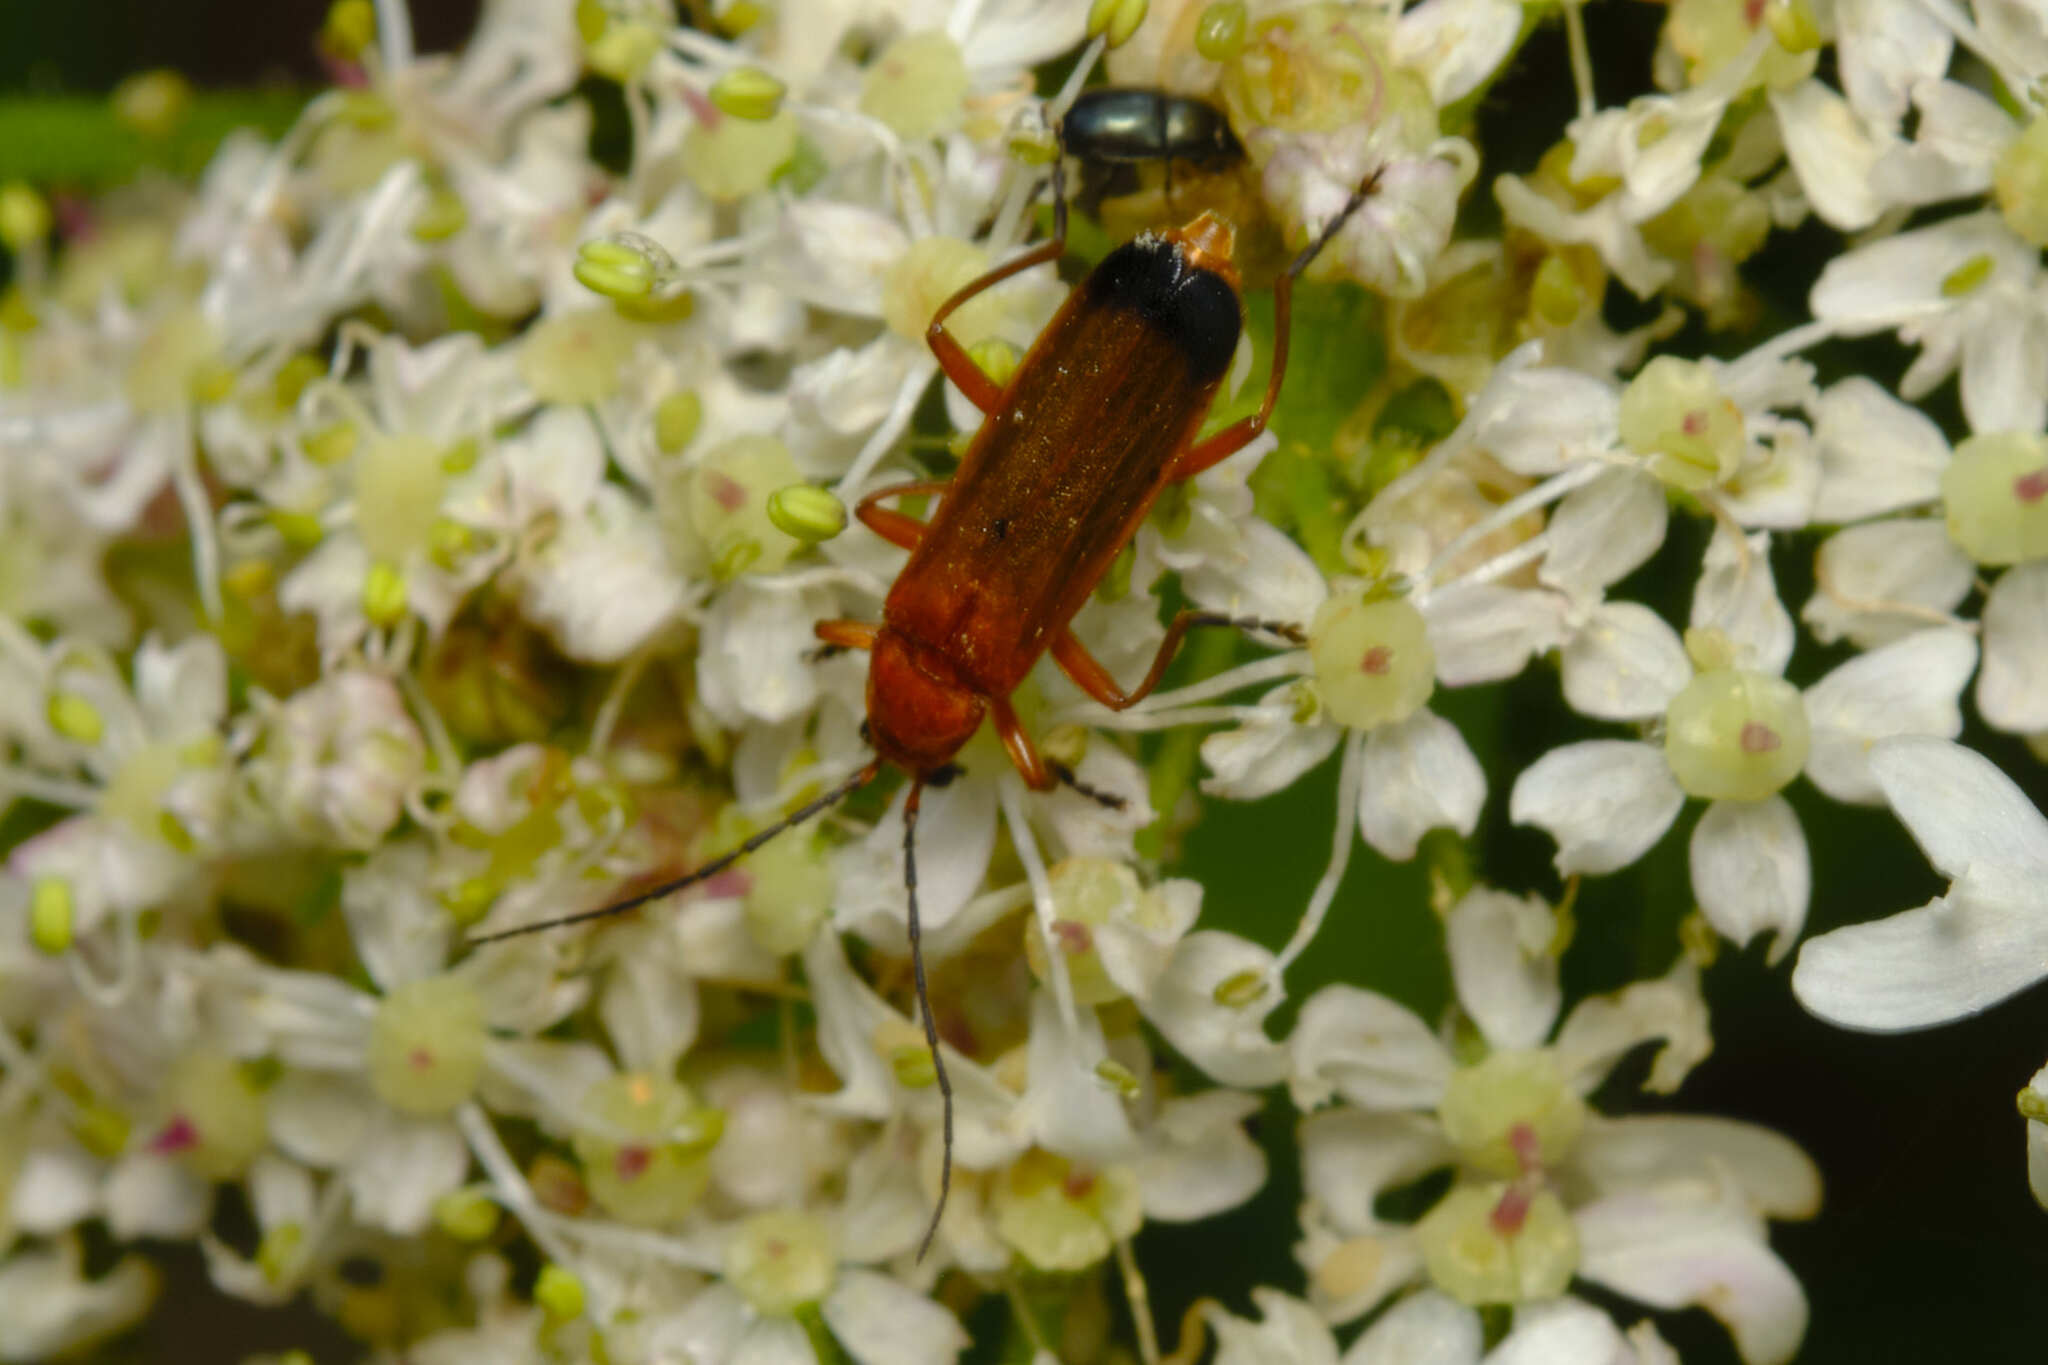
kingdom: Animalia
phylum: Arthropoda
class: Insecta
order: Coleoptera
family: Cantharidae
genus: Rhagonycha
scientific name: Rhagonycha fulva
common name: Common red soldier beetle
